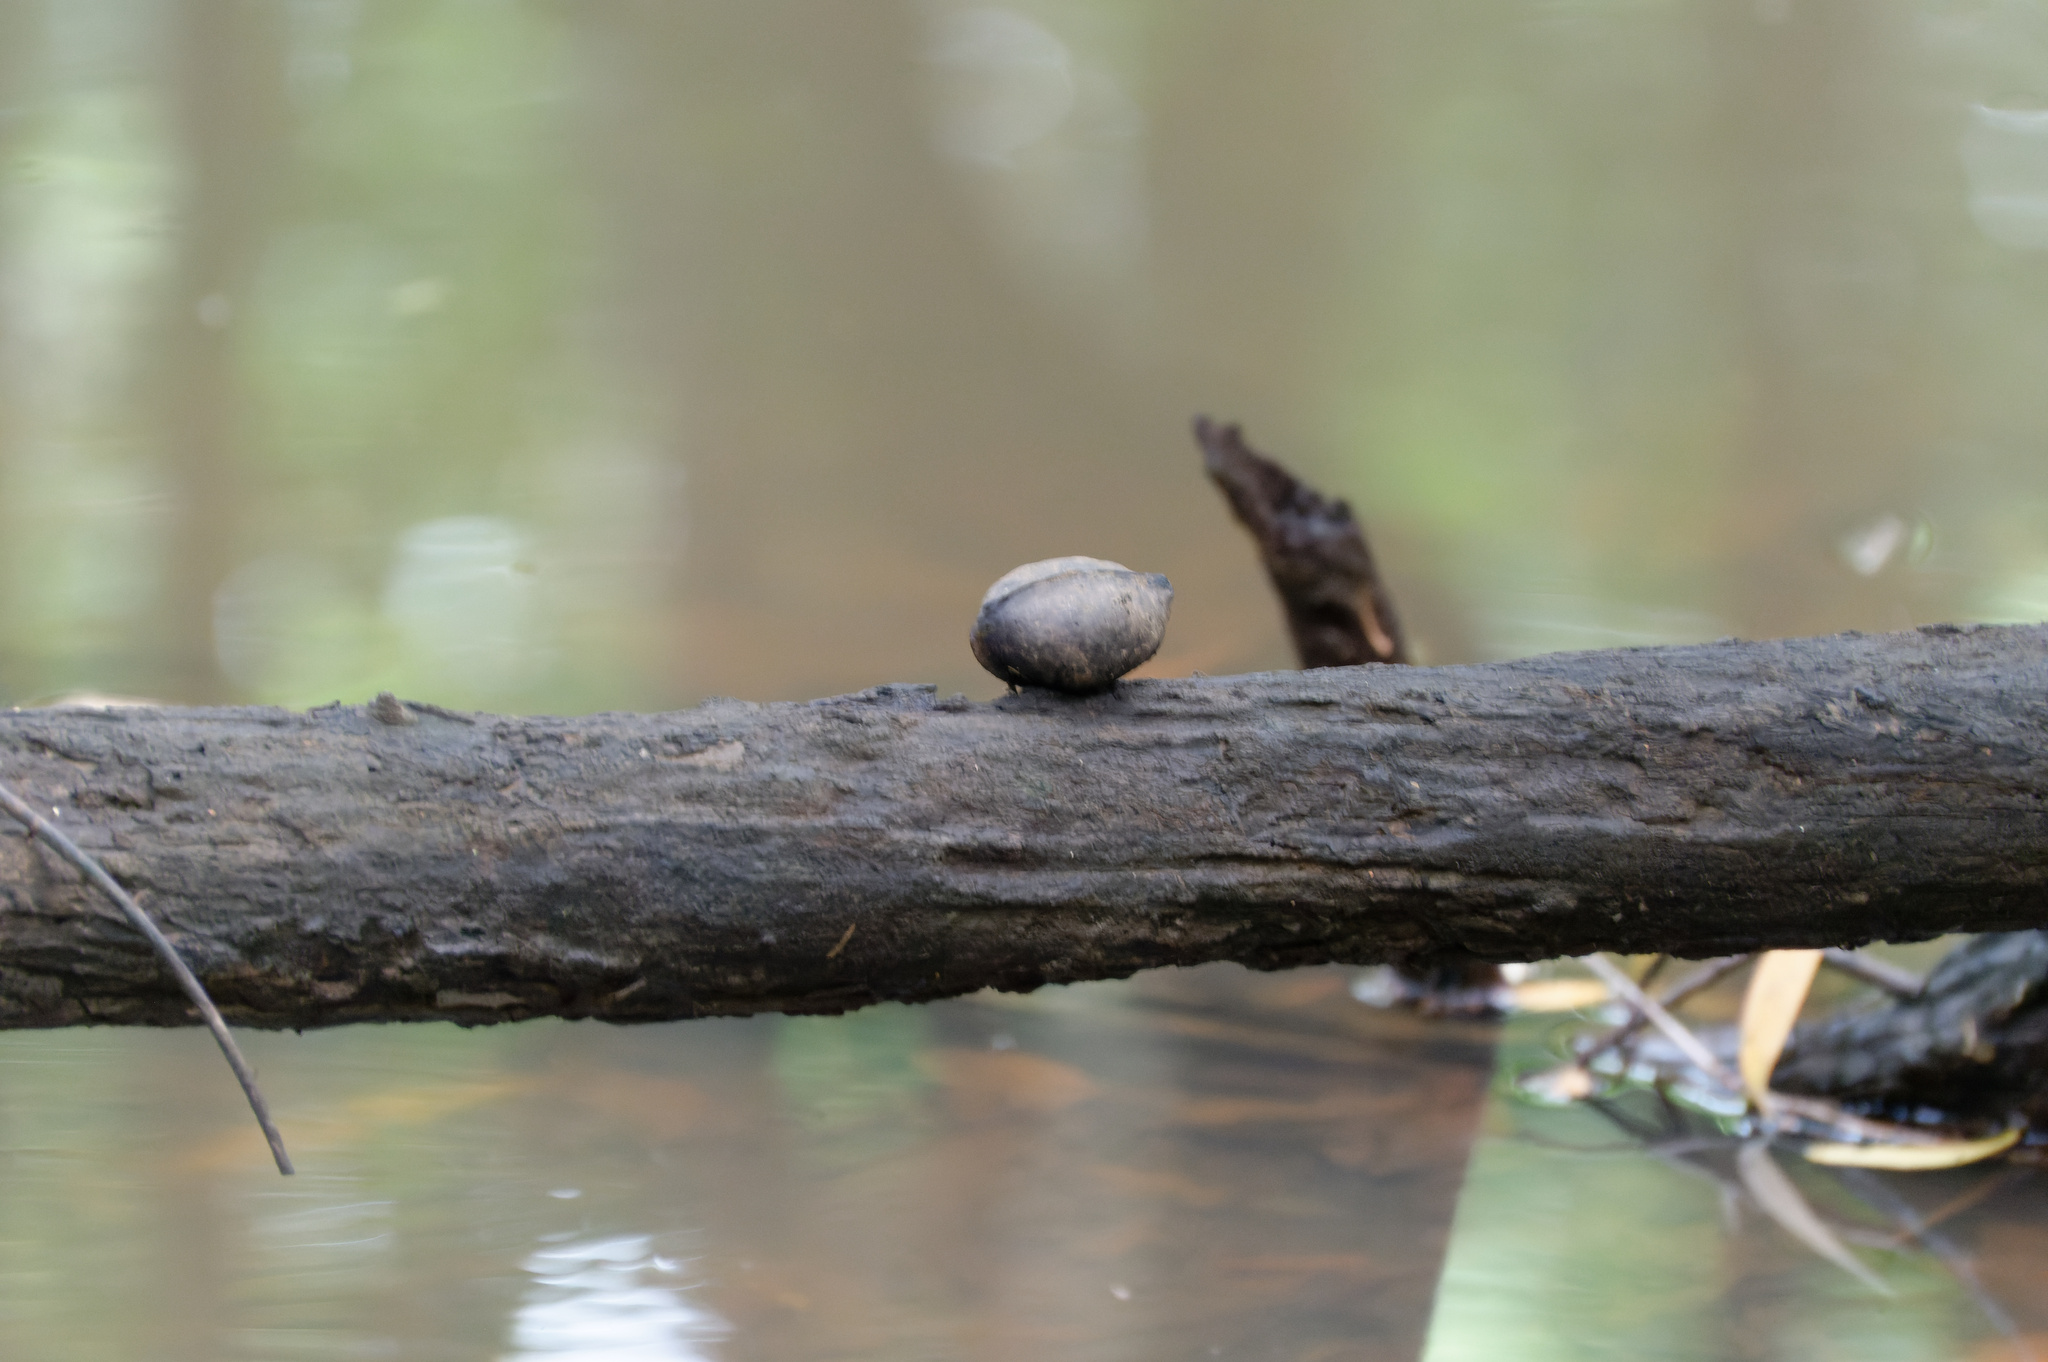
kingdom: Plantae
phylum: Tracheophyta
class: Magnoliopsida
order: Malvales
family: Malvaceae
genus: Heritiera
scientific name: Heritiera littoralis
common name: Looking-glass mangrove
